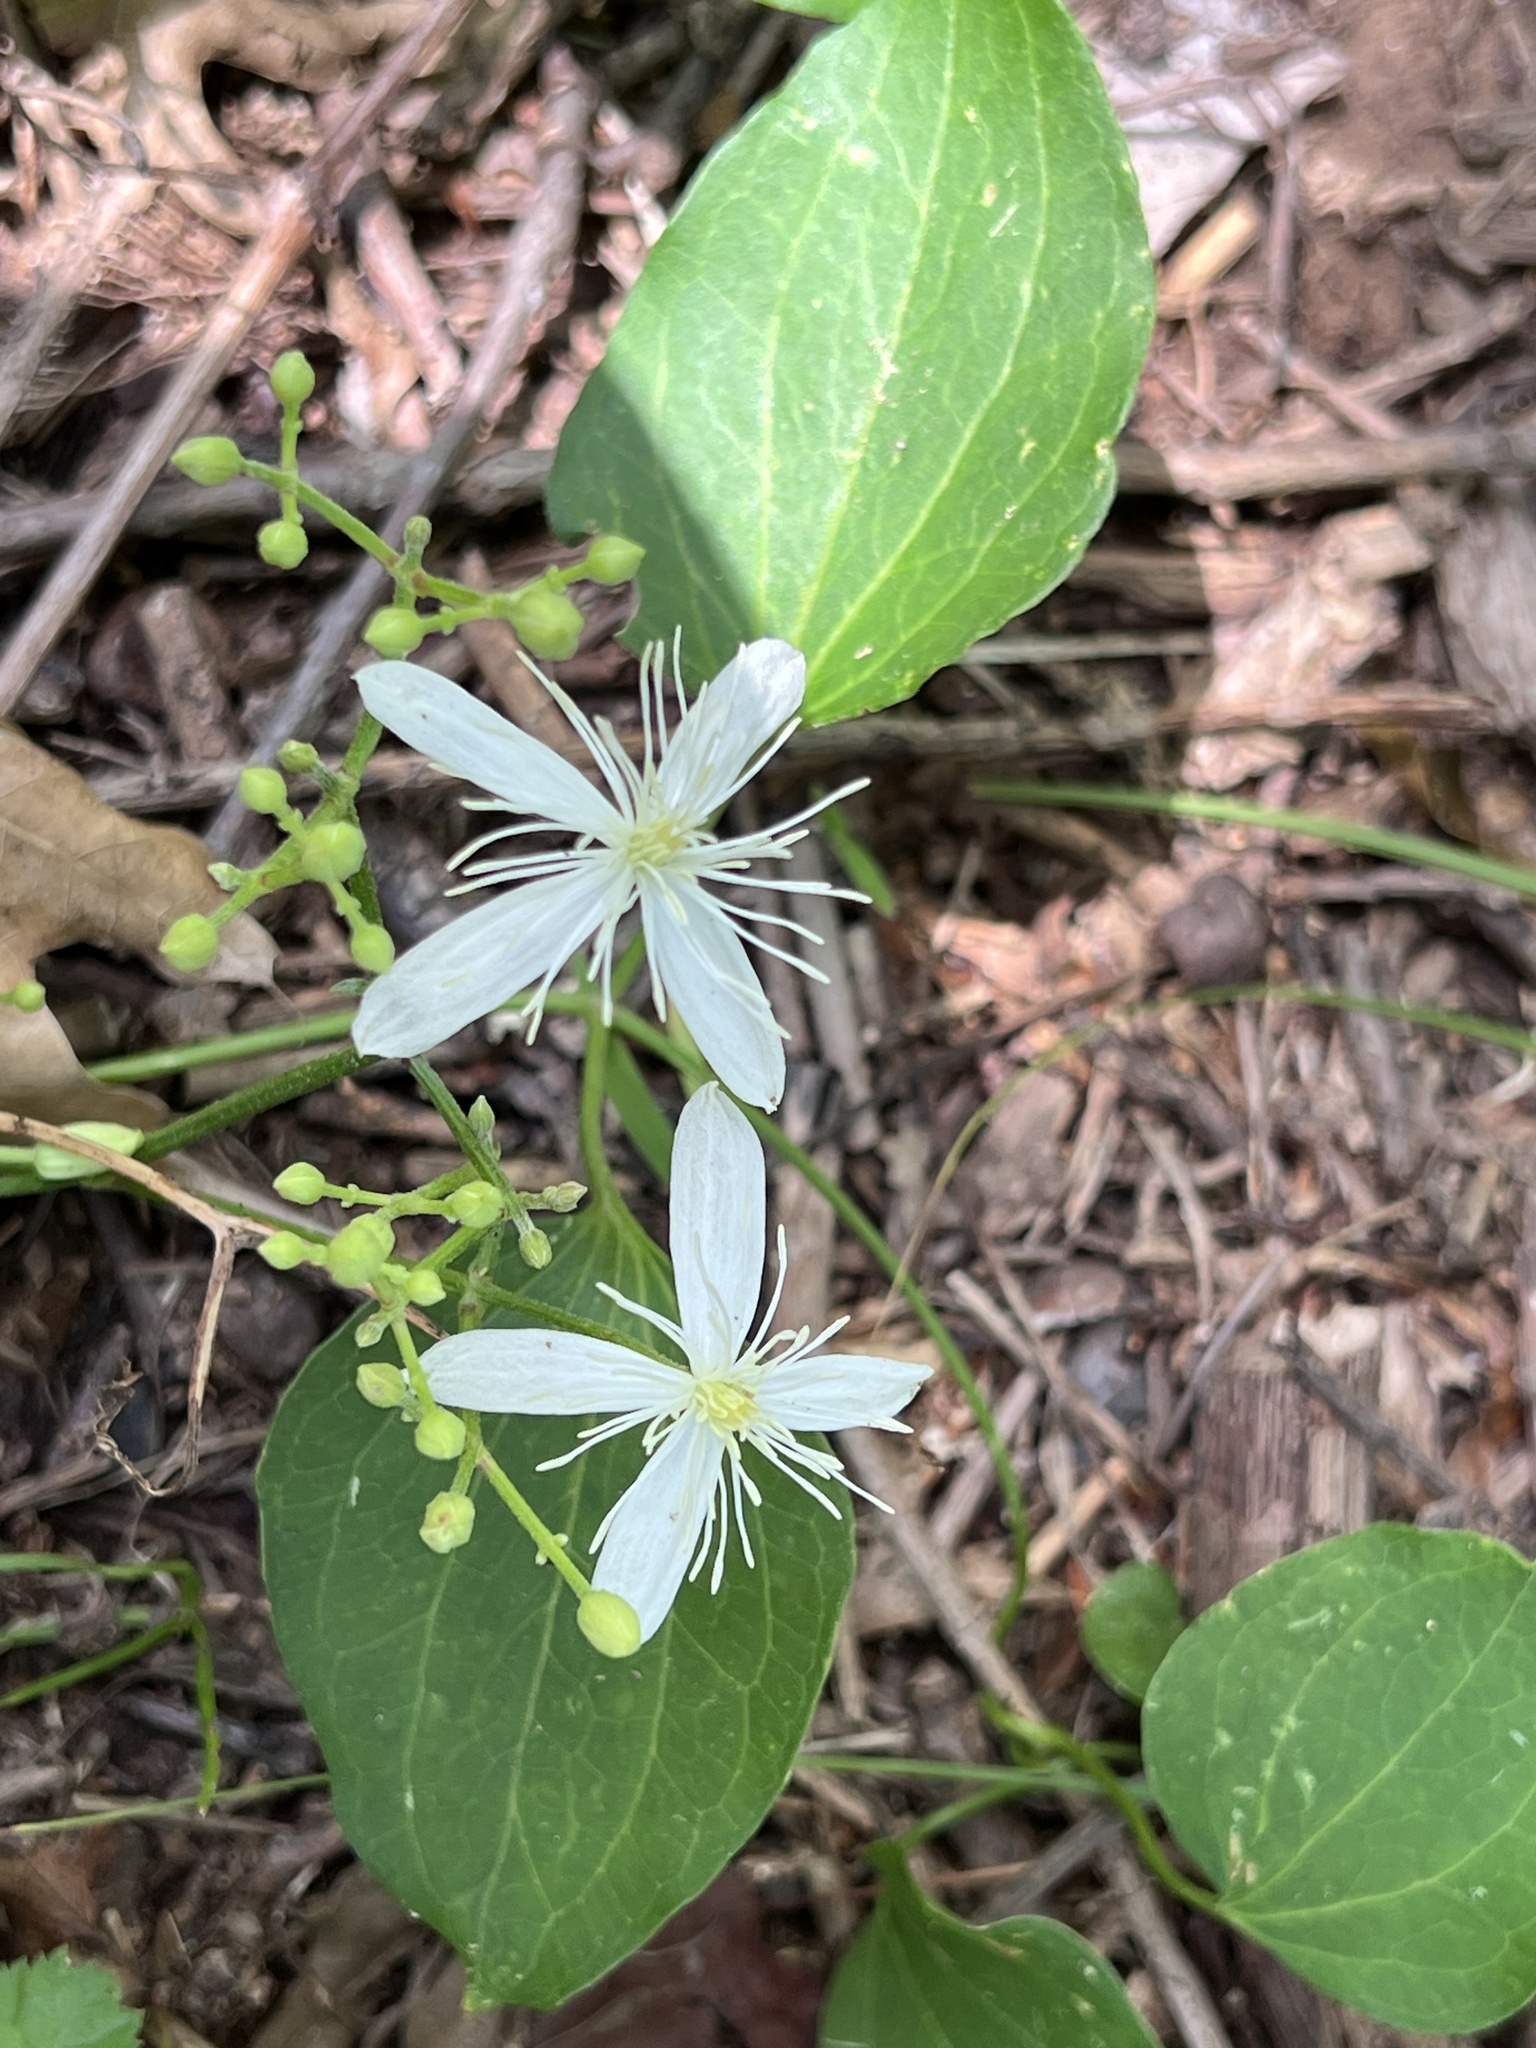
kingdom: Plantae
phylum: Tracheophyta
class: Magnoliopsida
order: Ranunculales
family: Ranunculaceae
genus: Clematis
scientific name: Clematis terniflora
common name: Sweet autumn clematis
